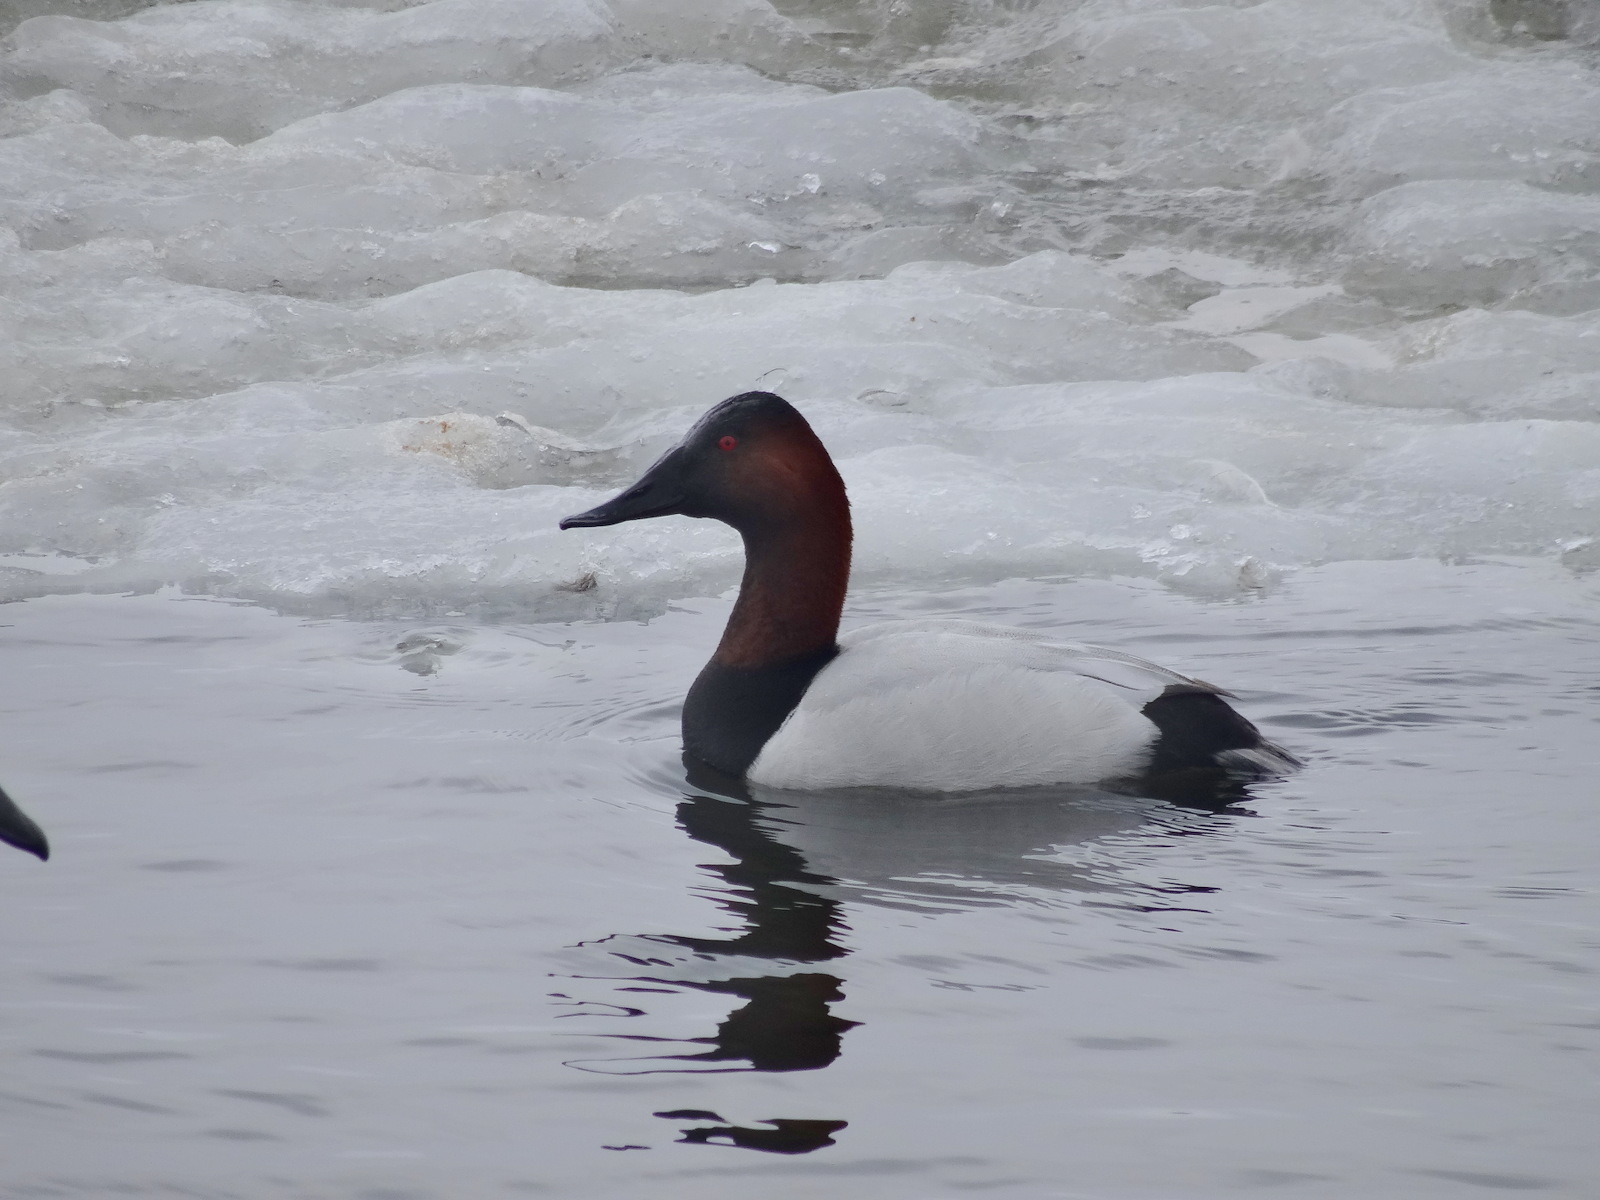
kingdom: Animalia
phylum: Chordata
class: Aves
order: Anseriformes
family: Anatidae
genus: Aythya
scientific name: Aythya valisineria
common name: Canvasback
